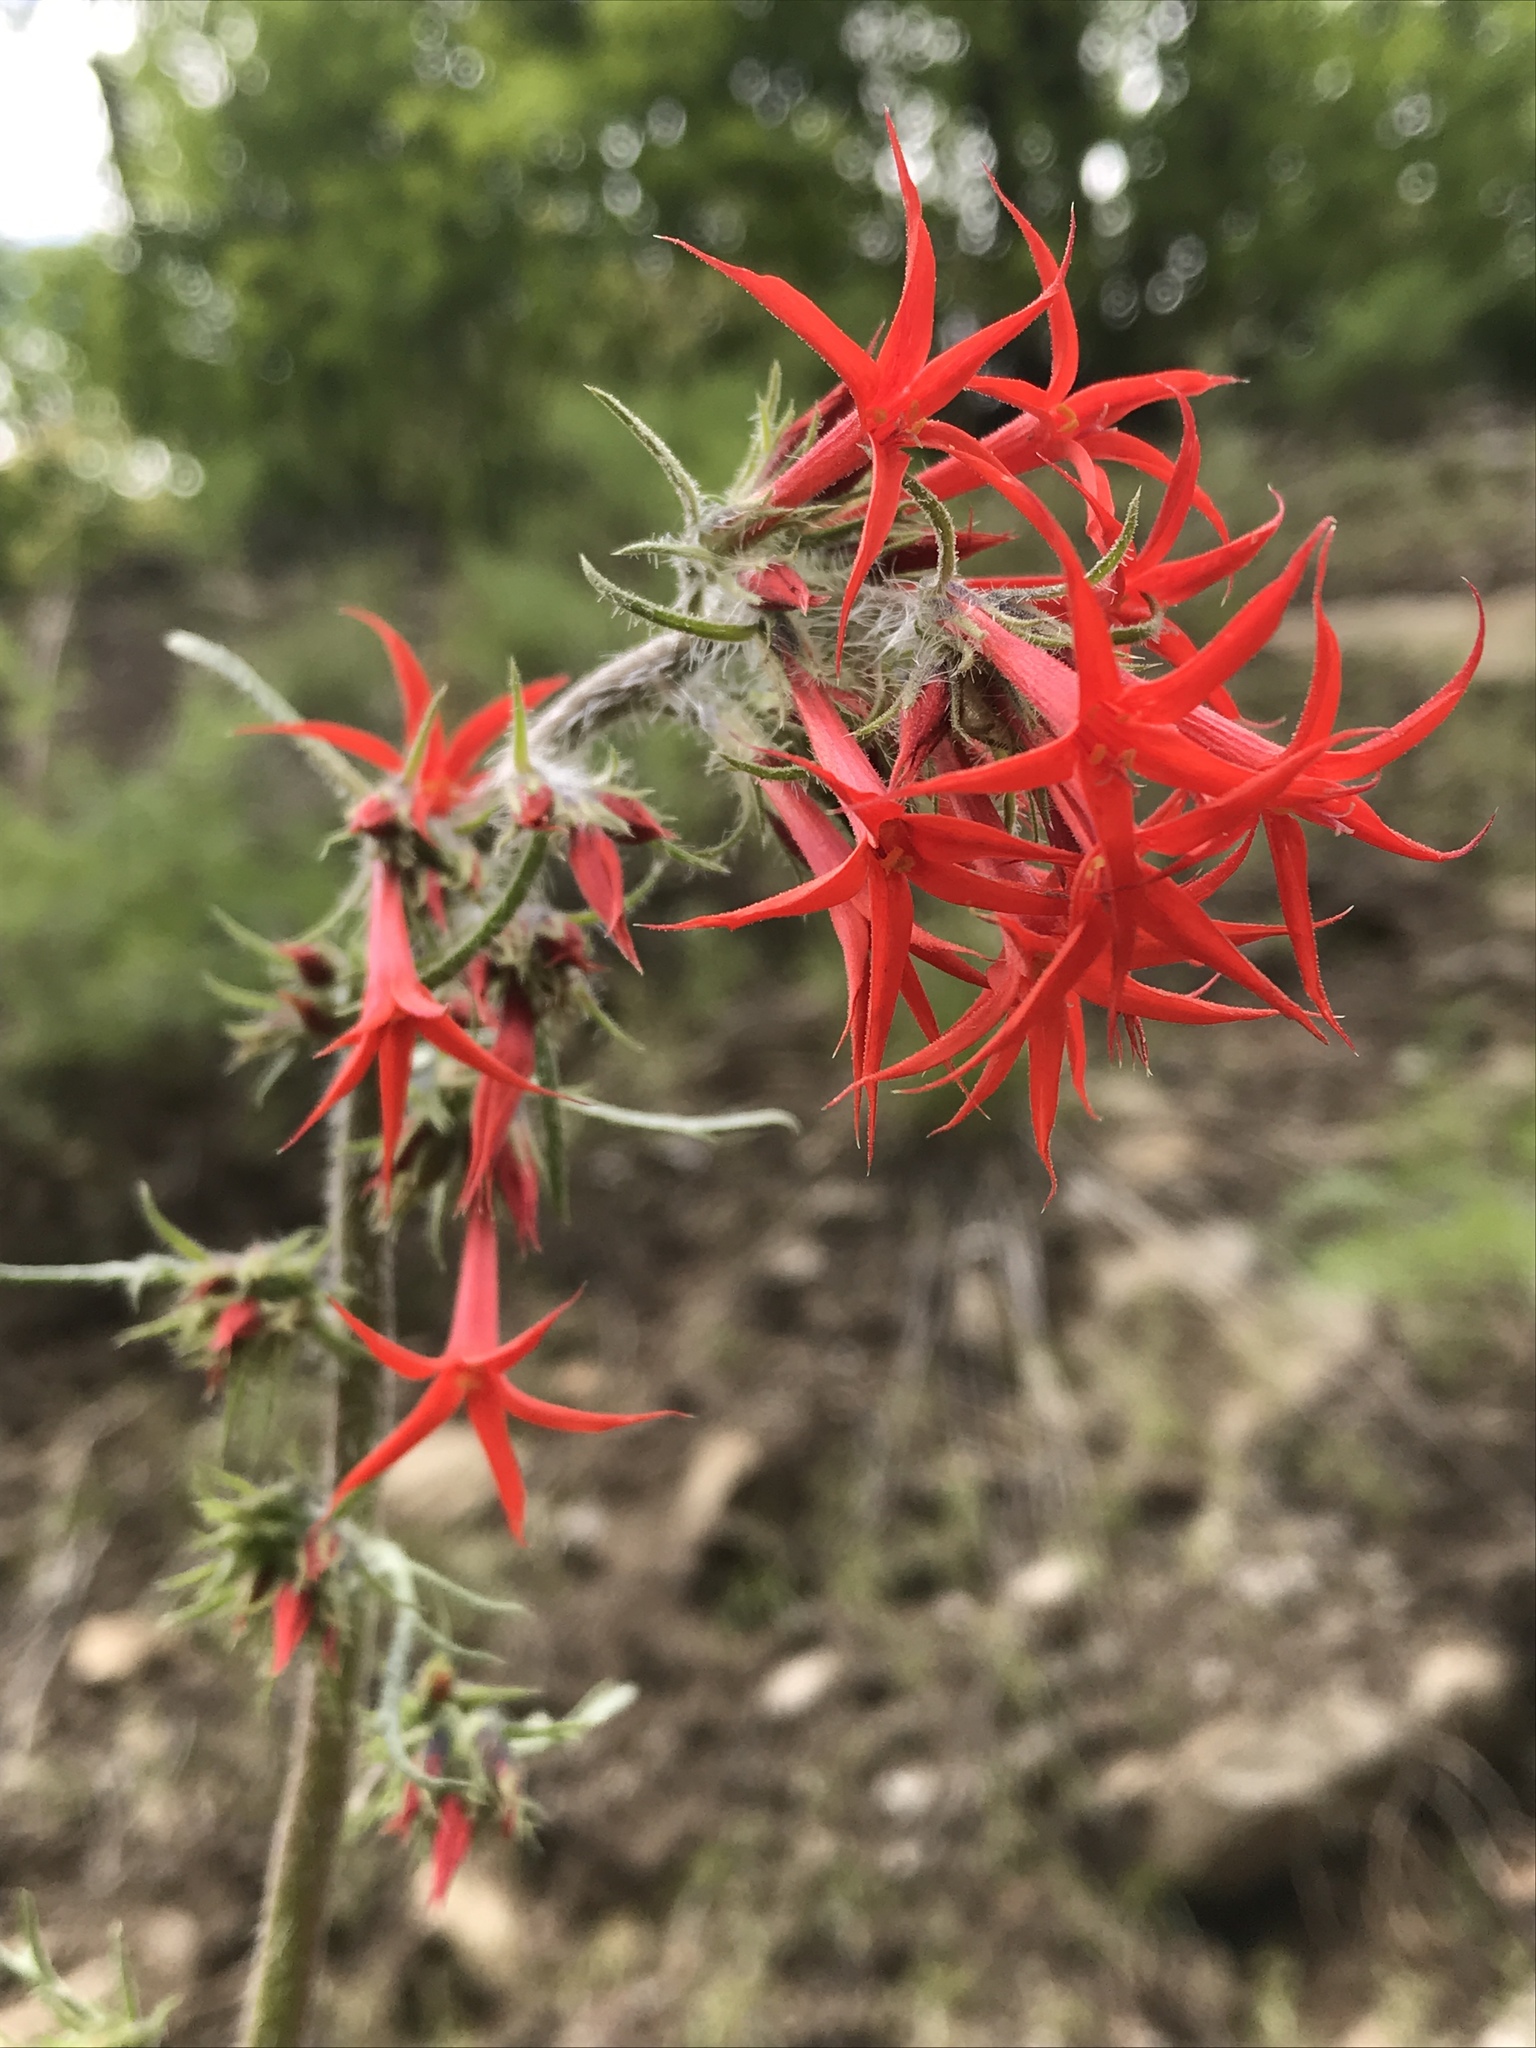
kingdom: Plantae
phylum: Tracheophyta
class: Magnoliopsida
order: Ericales
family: Polemoniaceae
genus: Ipomopsis
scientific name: Ipomopsis aggregata
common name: Scarlet gilia
